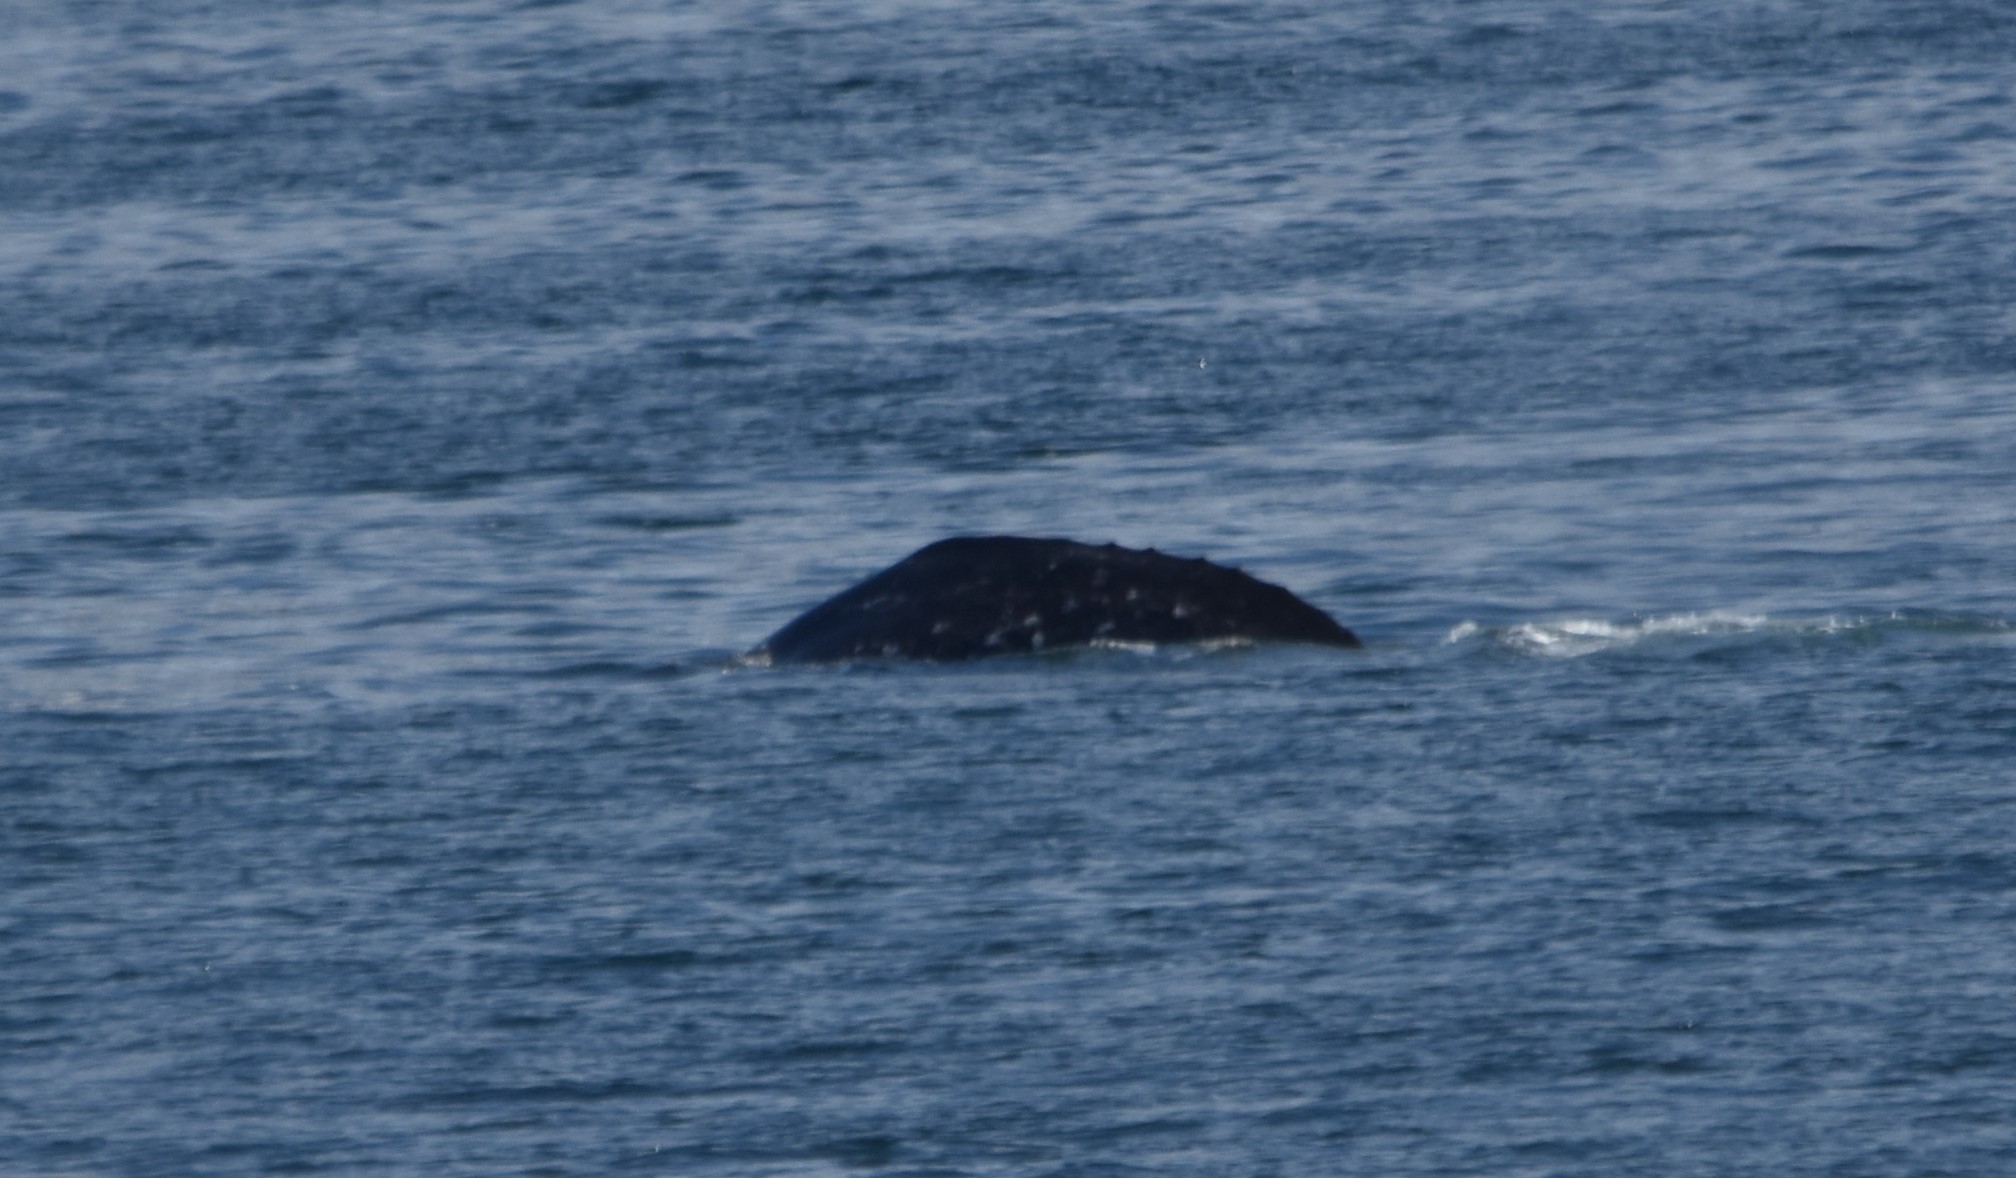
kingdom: Animalia
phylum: Chordata
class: Mammalia
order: Cetacea
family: Eschrichtiidae
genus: Eschrichtius
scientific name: Eschrichtius robustus
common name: Gray whale
